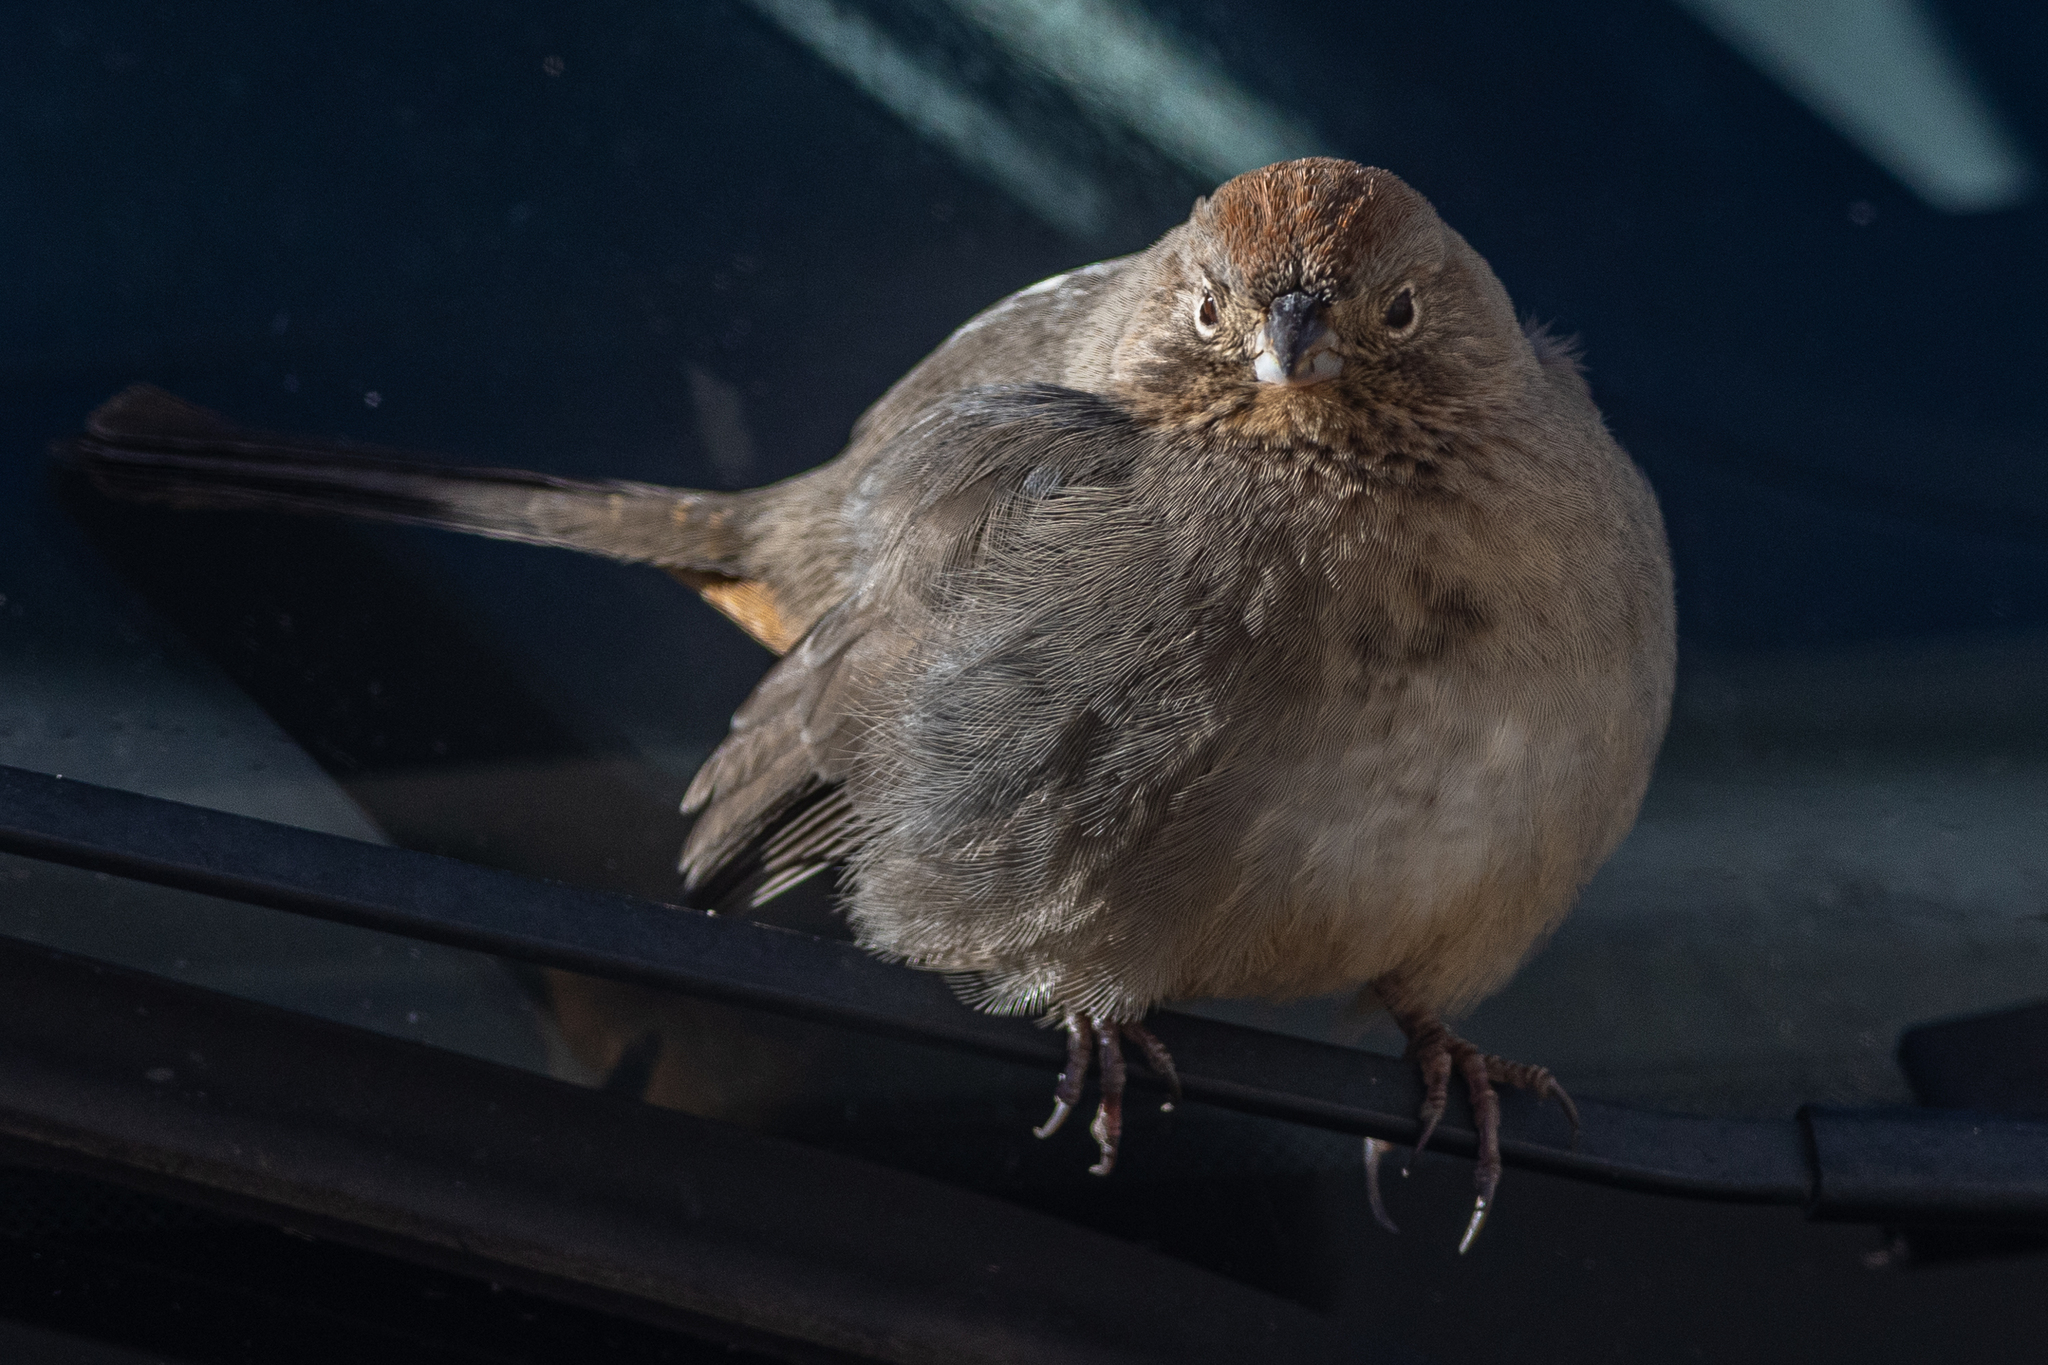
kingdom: Animalia
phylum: Chordata
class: Aves
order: Passeriformes
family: Passerellidae
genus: Melozone
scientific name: Melozone fusca
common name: Canyon towhee
